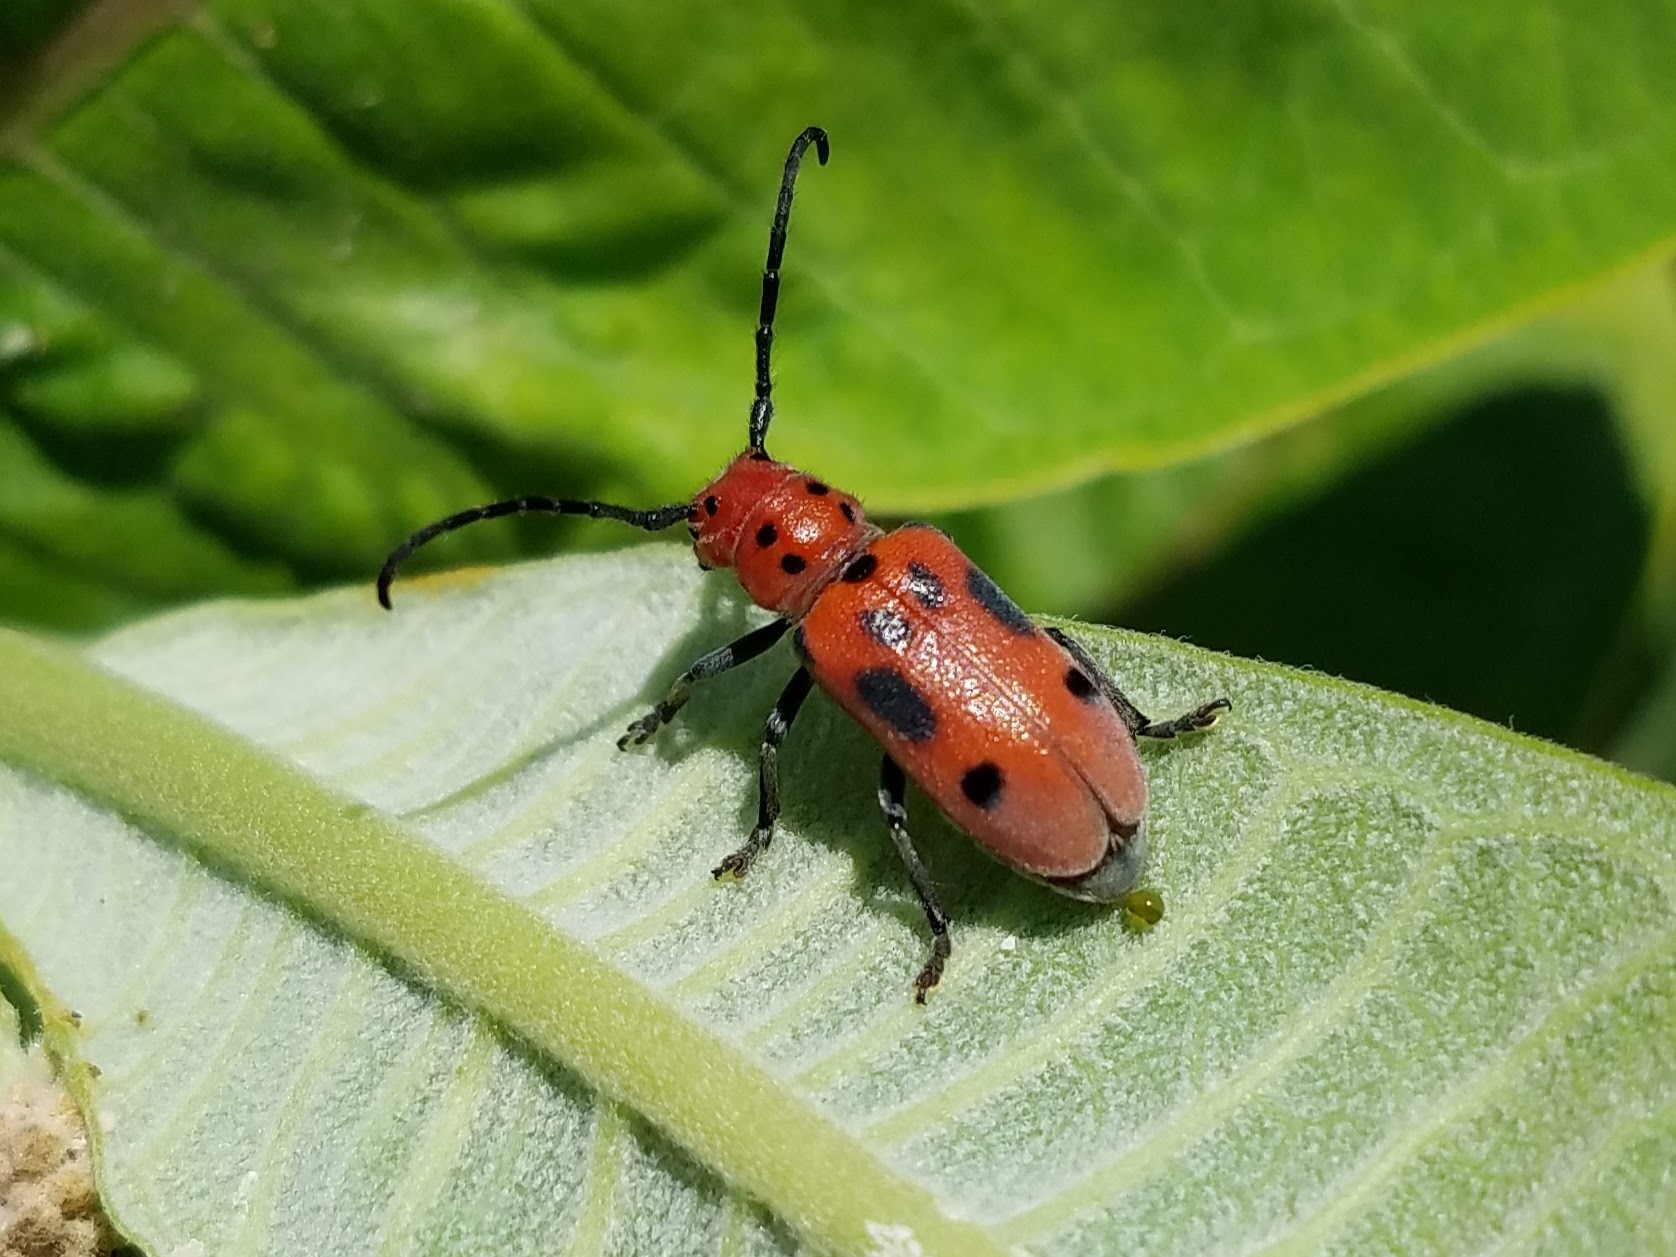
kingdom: Animalia
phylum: Arthropoda
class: Insecta
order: Coleoptera
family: Cerambycidae
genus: Tetraopes
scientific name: Tetraopes tetrophthalmus
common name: Red milkweed beetle
